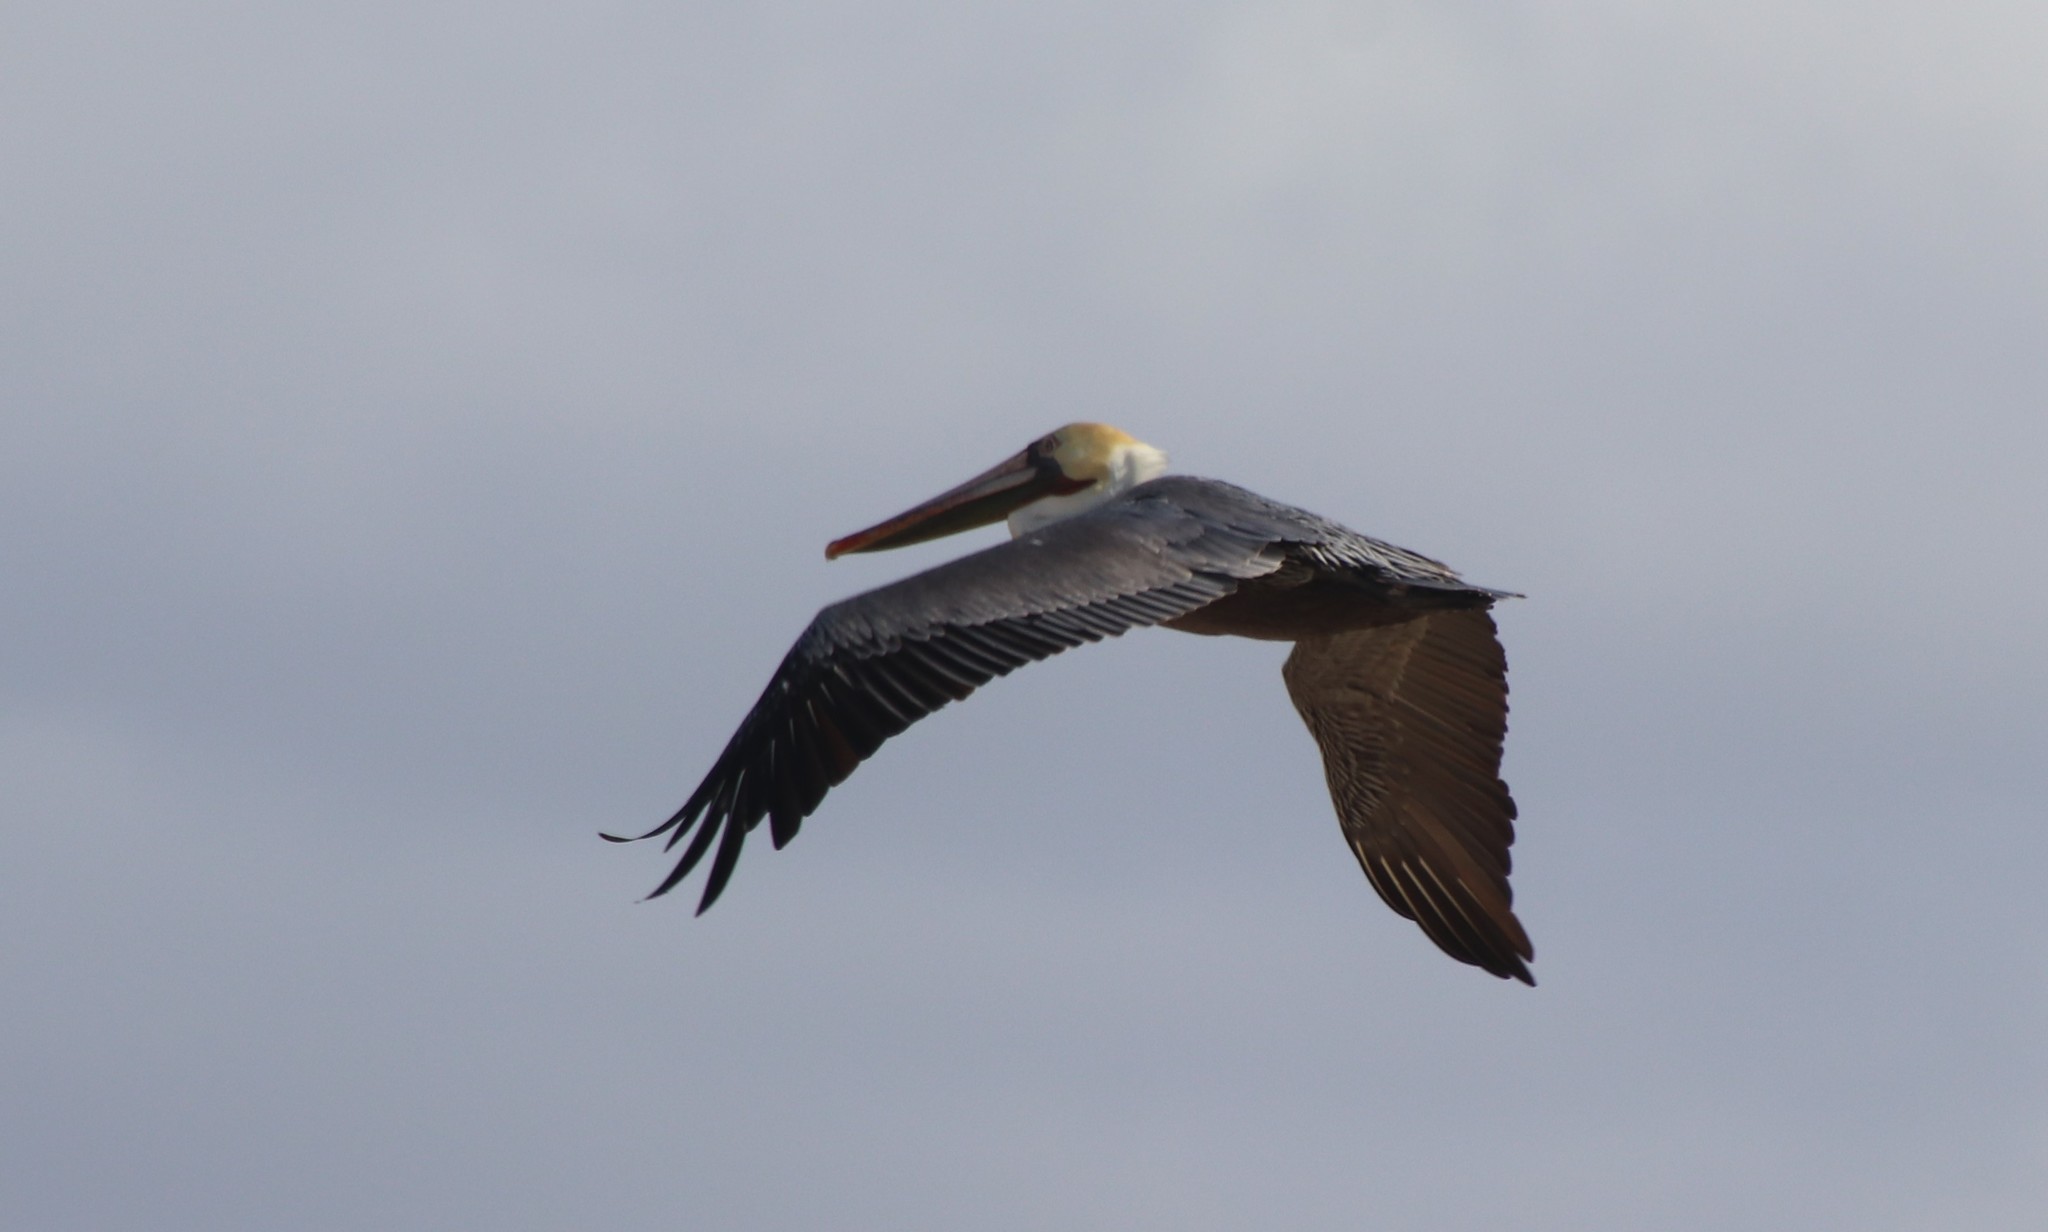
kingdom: Animalia
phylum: Chordata
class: Aves
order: Pelecaniformes
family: Pelecanidae
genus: Pelecanus
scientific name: Pelecanus occidentalis
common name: Brown pelican
